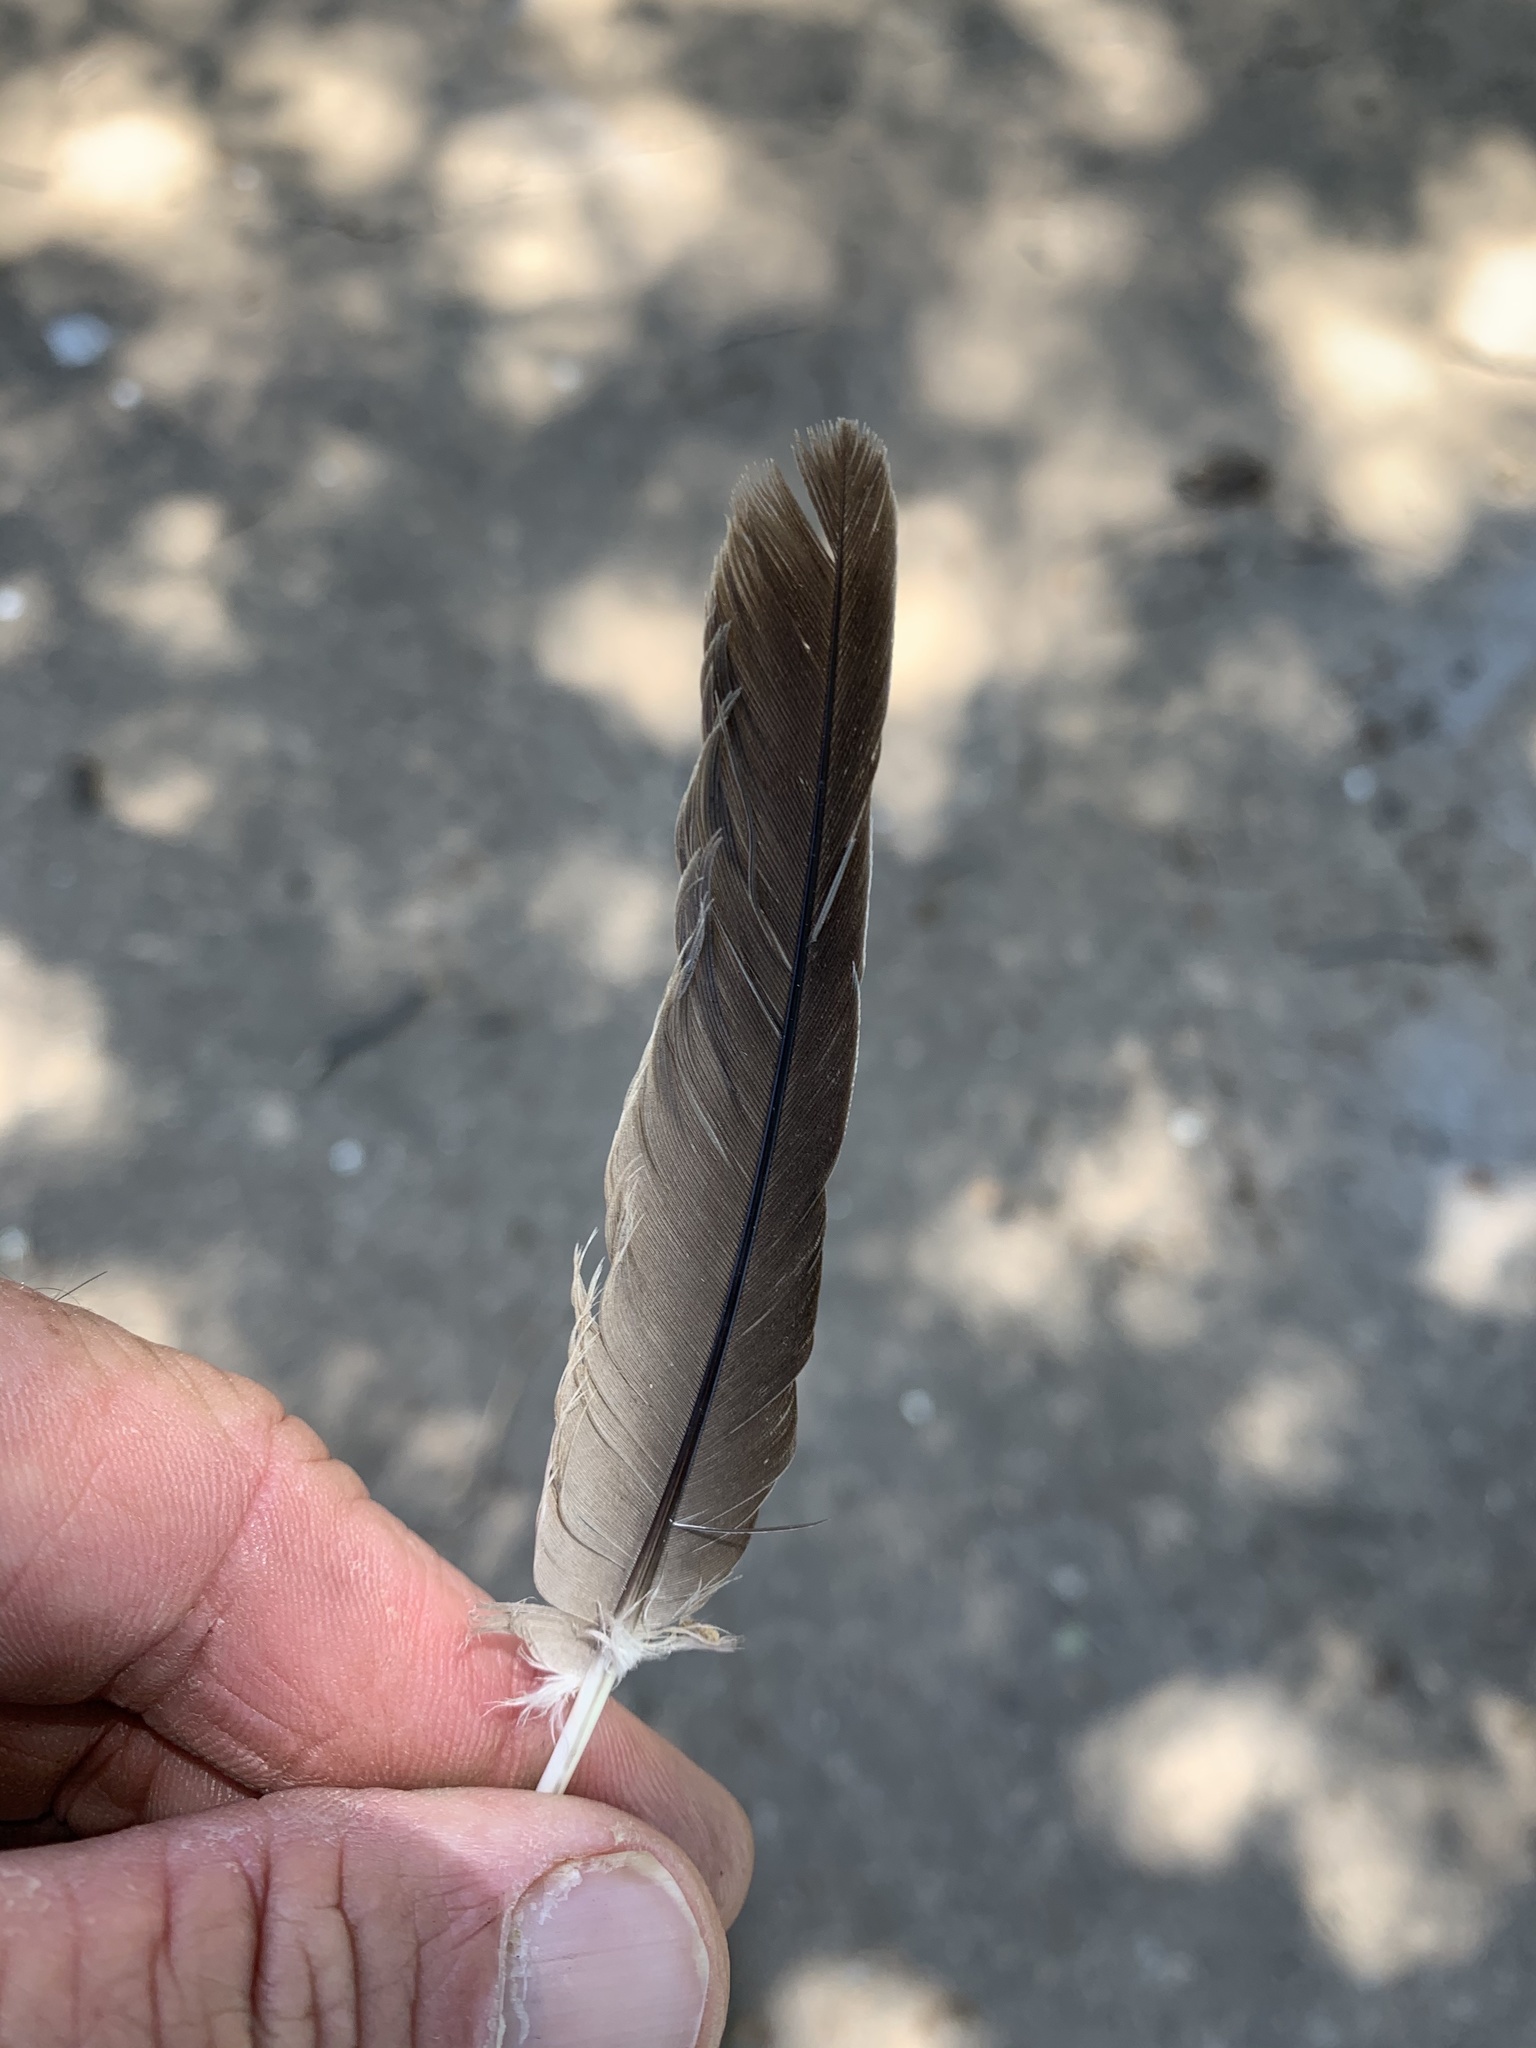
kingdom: Animalia
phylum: Chordata
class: Aves
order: Columbiformes
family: Columbidae
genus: Zenaida
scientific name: Zenaida macroura
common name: Mourning dove
